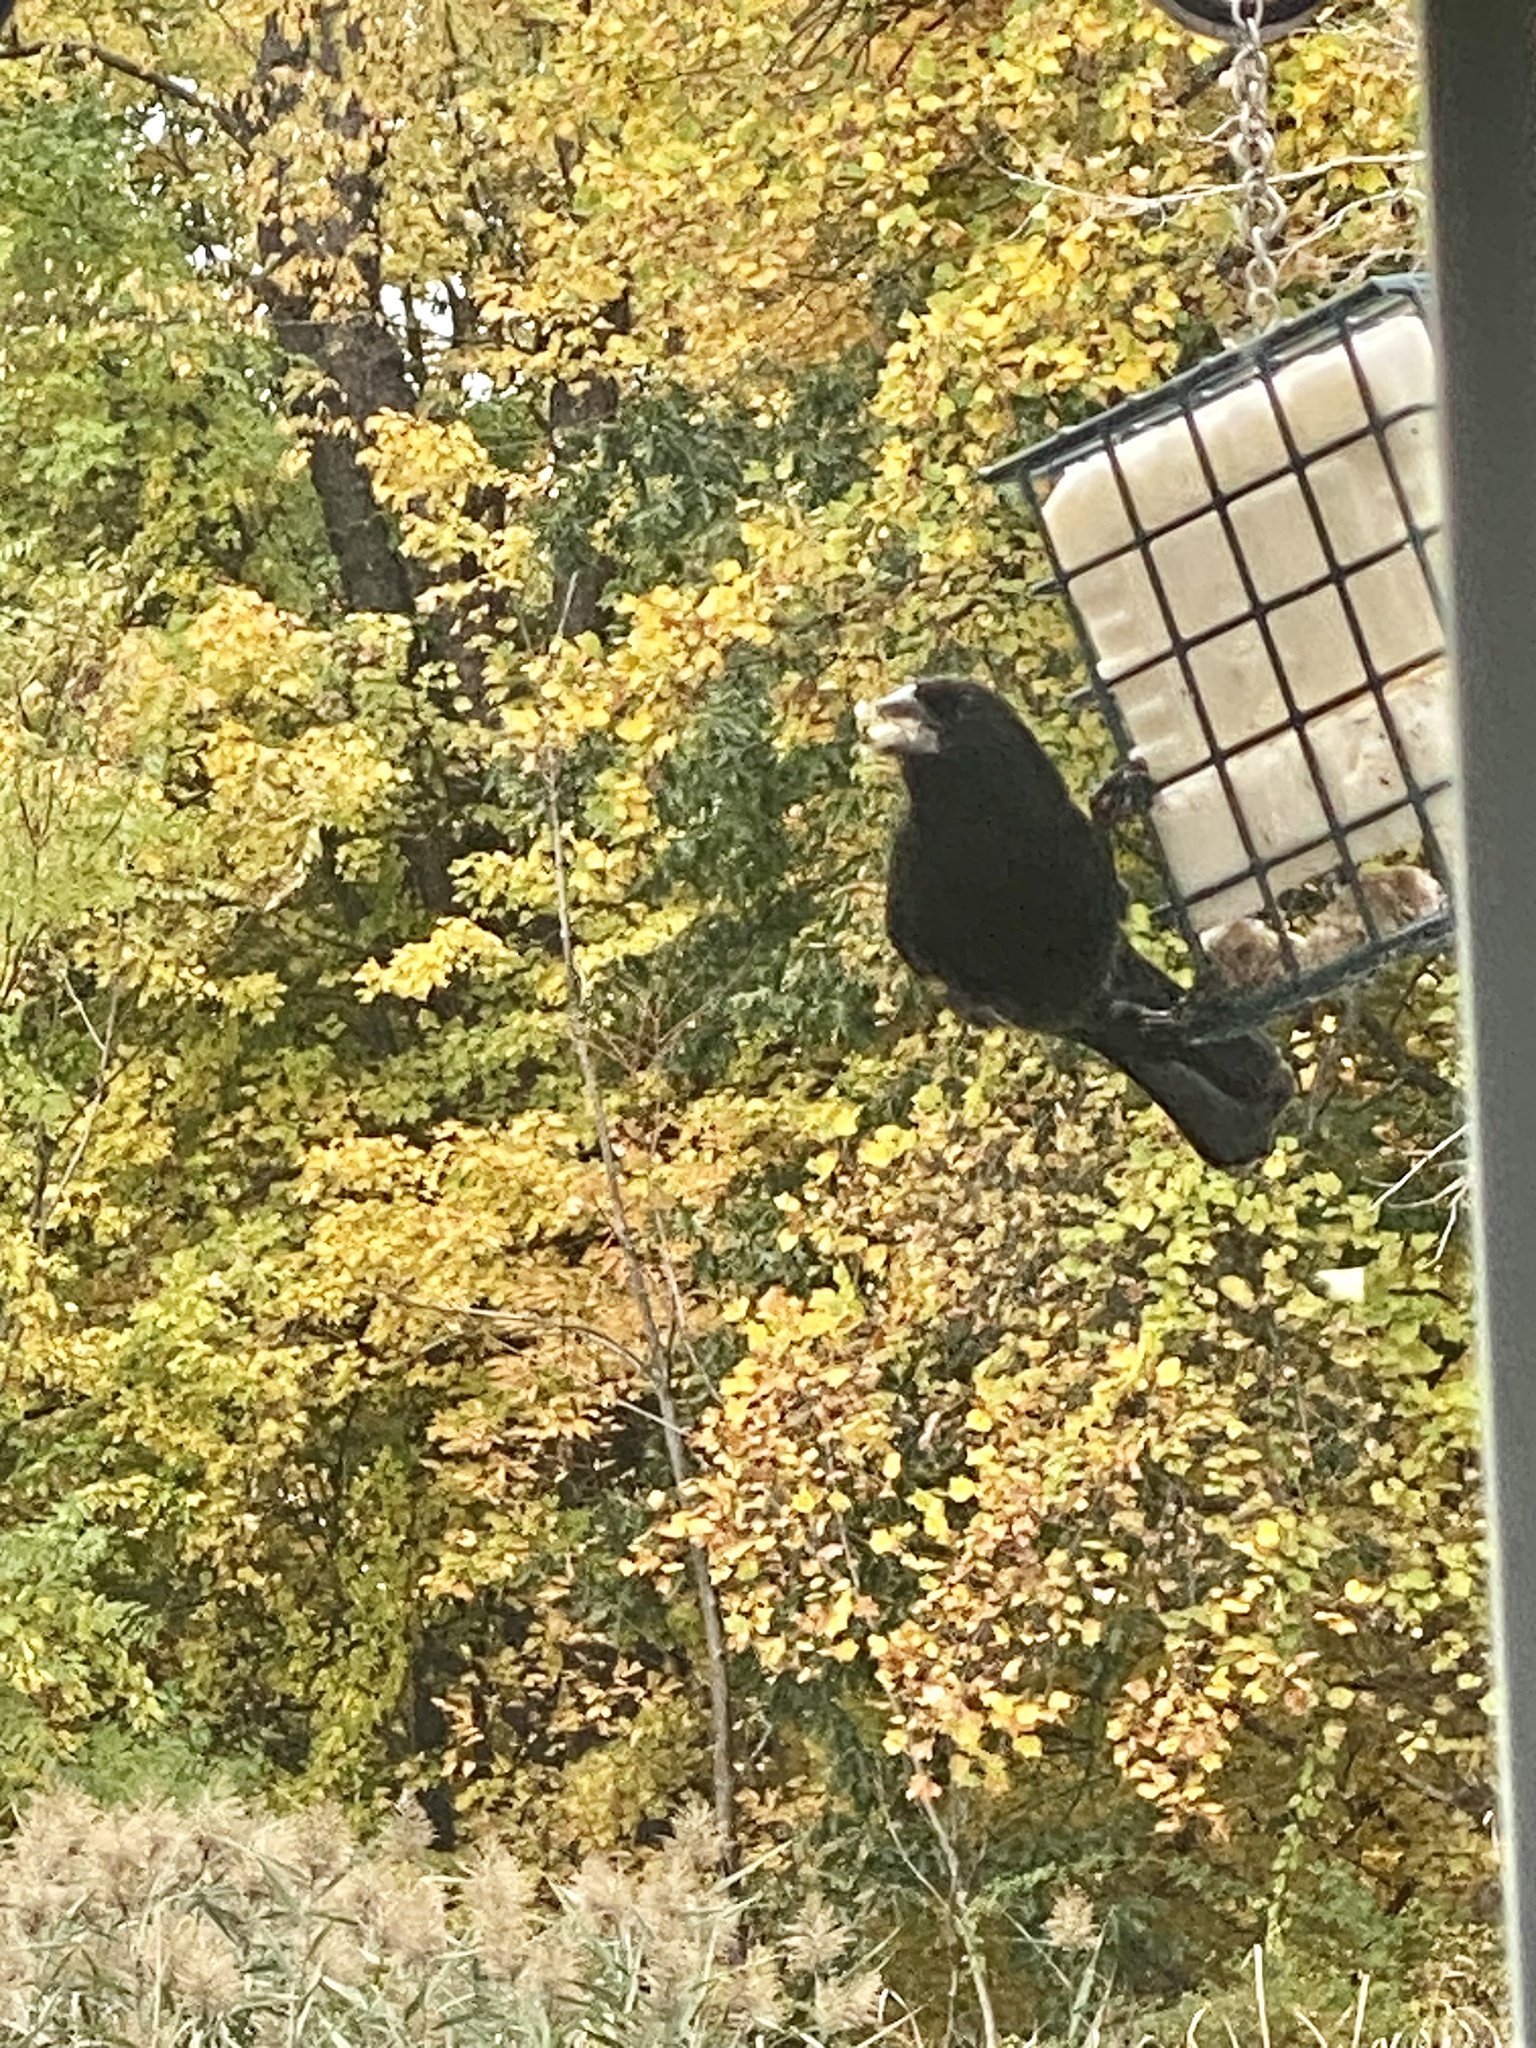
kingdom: Animalia
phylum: Chordata
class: Aves
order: Passeriformes
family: Icteridae
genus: Agelaius
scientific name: Agelaius phoeniceus
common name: Red-winged blackbird
